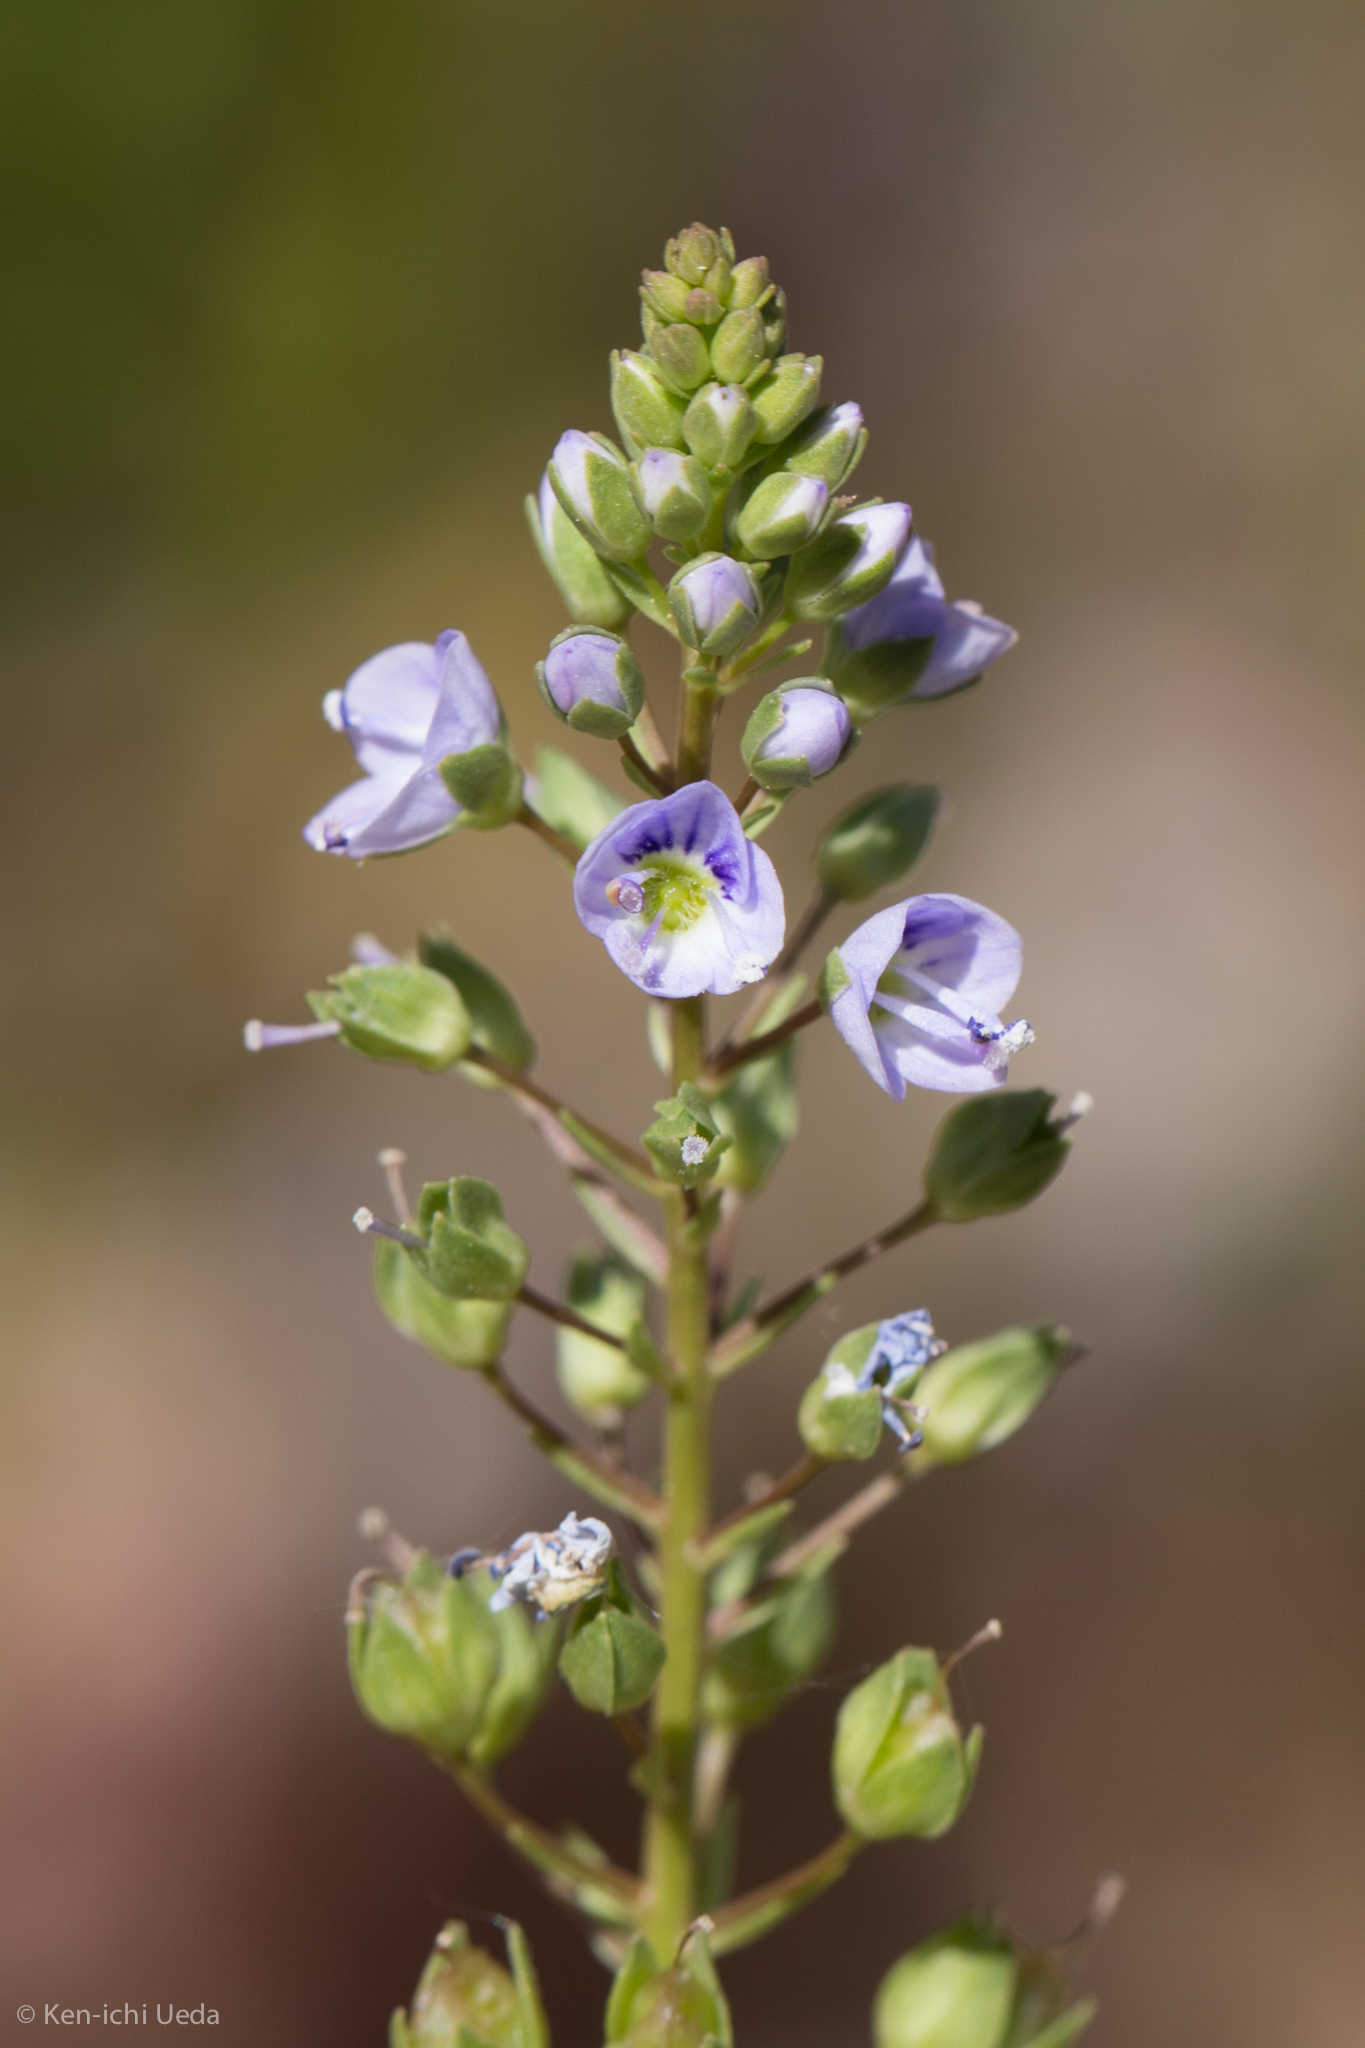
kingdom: Plantae
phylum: Tracheophyta
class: Magnoliopsida
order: Lamiales
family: Plantaginaceae
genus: Veronica
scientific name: Veronica anagallis-aquatica
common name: Water speedwell
